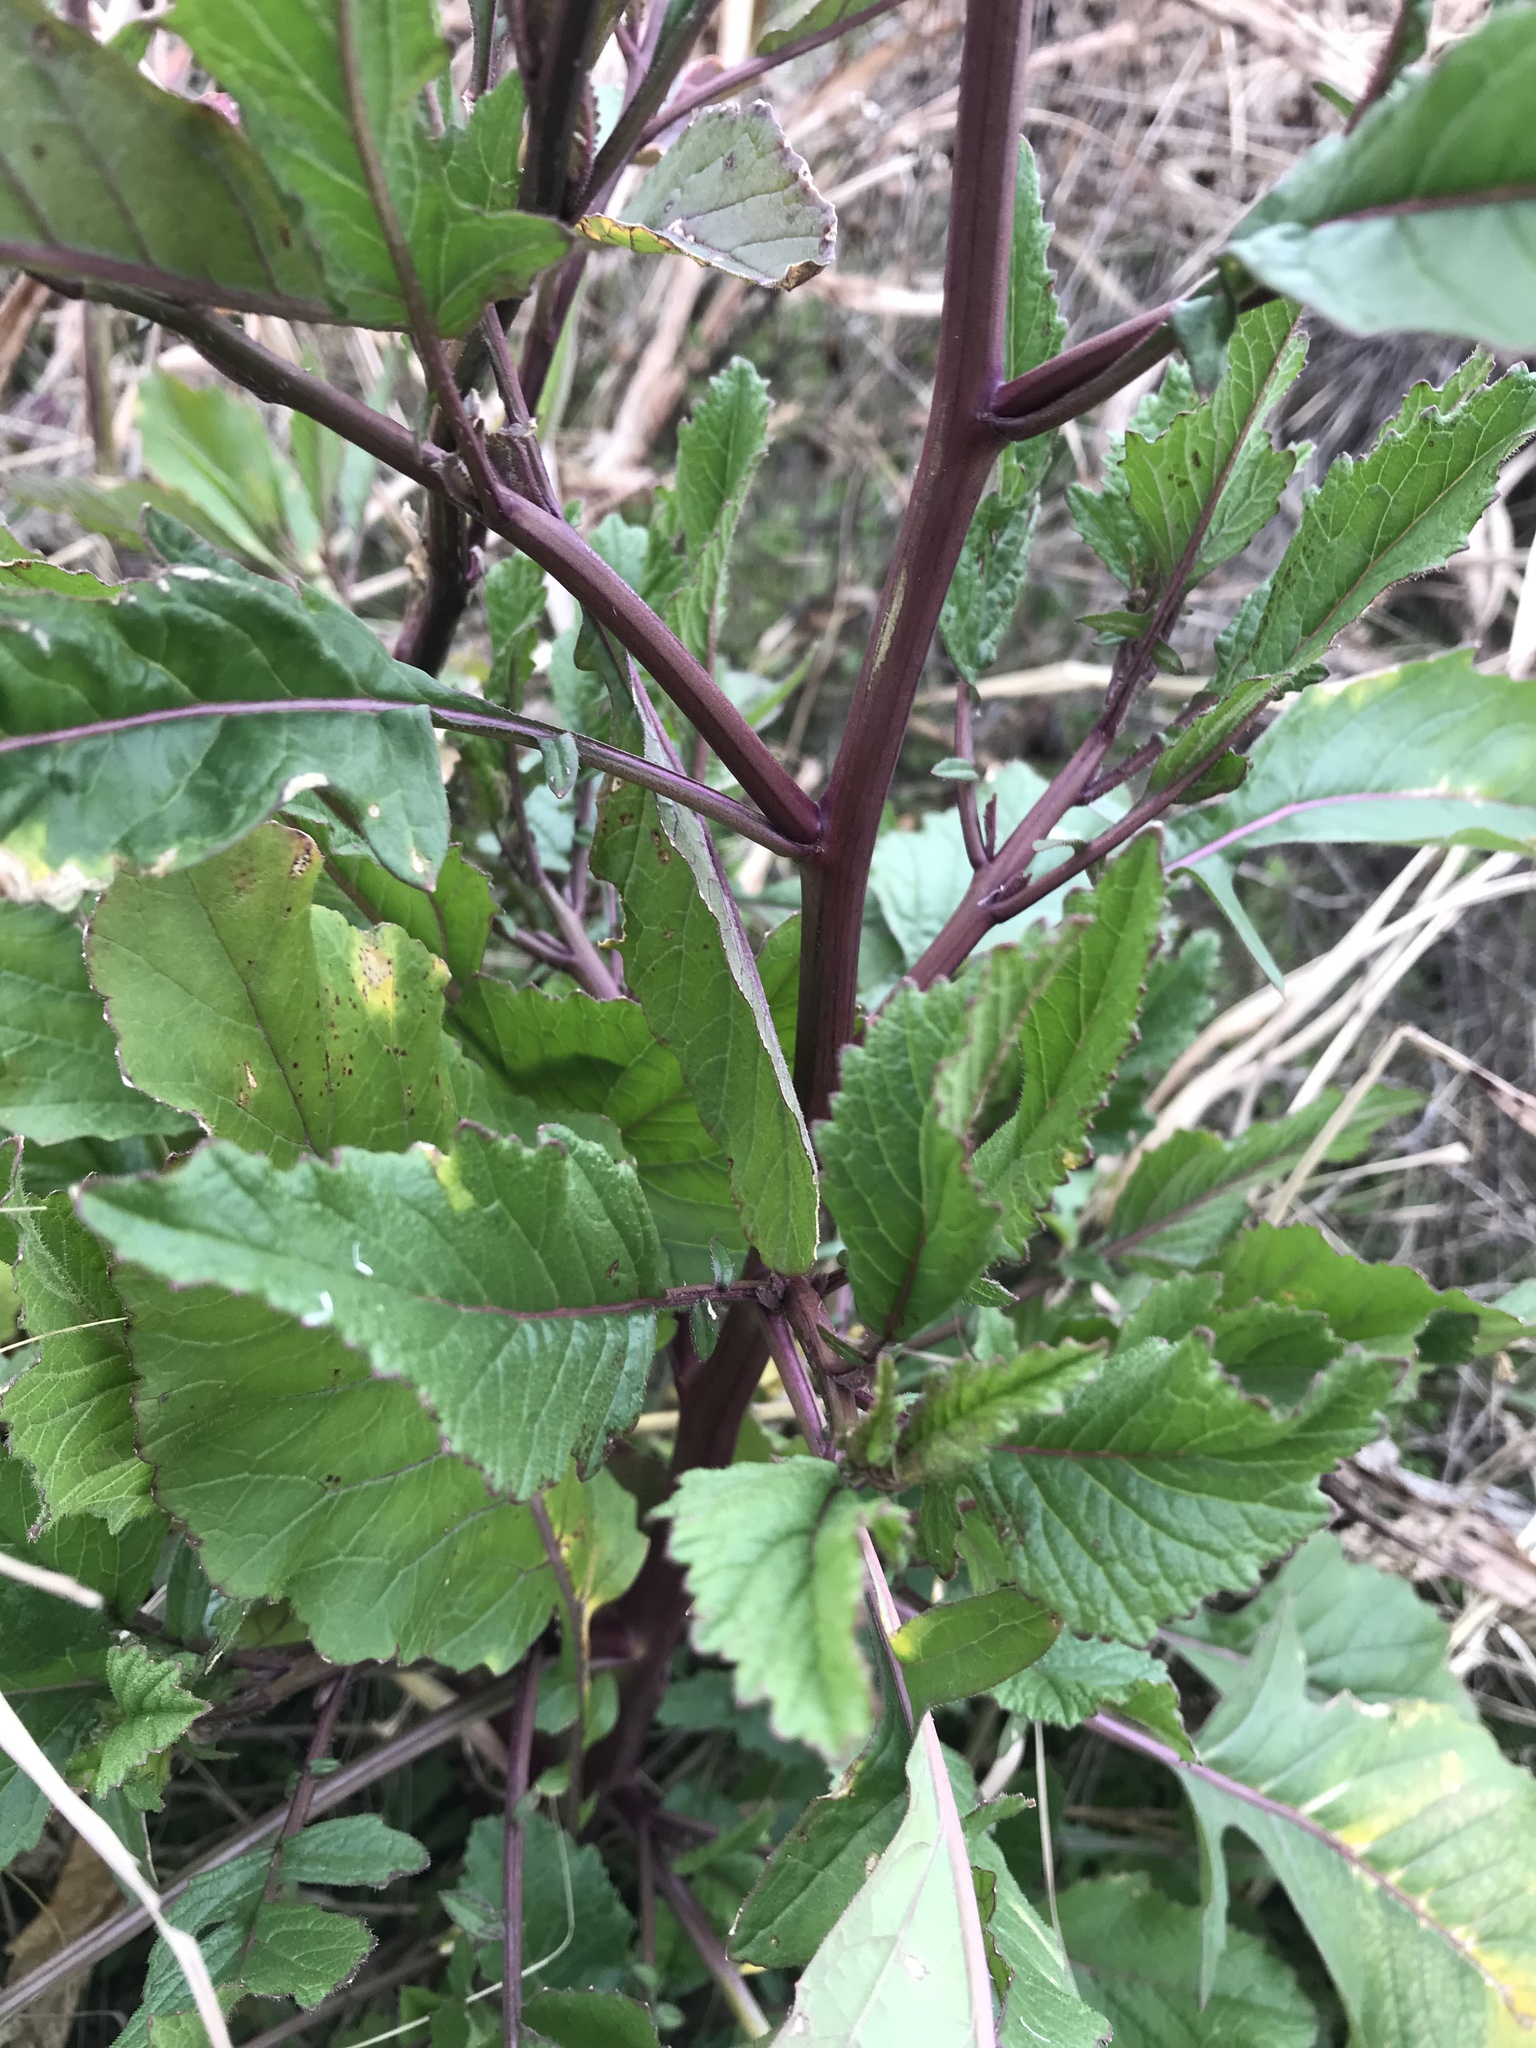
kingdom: Plantae
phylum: Tracheophyta
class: Magnoliopsida
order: Brassicales
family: Brassicaceae
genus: Rapistrum
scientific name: Rapistrum rugosum
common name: Annual bastardcabbage
